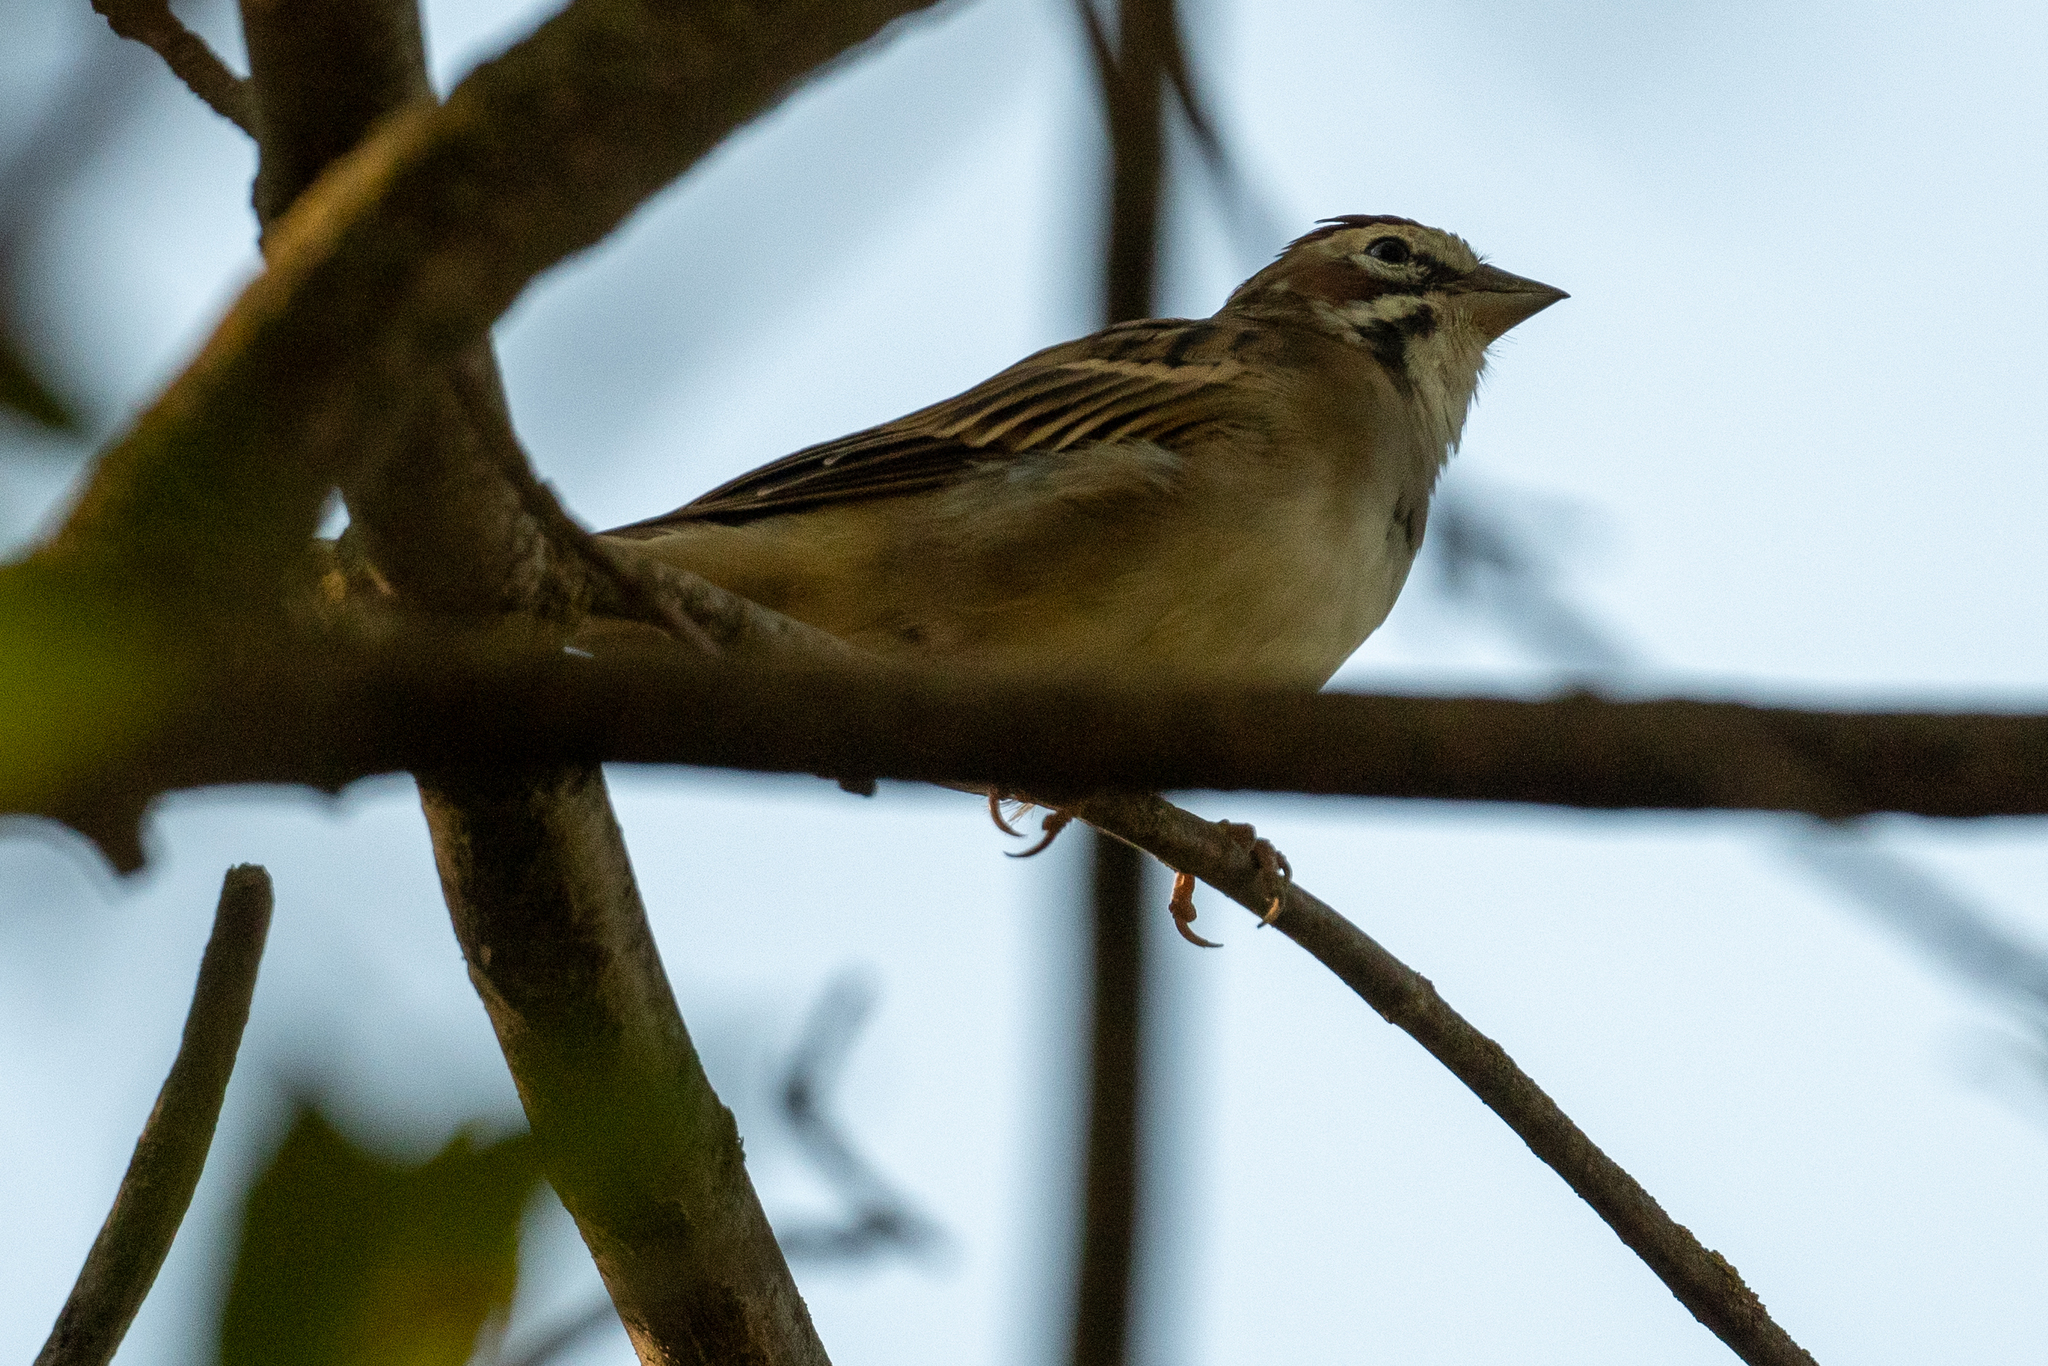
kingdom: Animalia
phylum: Chordata
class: Aves
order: Passeriformes
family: Passerellidae
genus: Chondestes
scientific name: Chondestes grammacus
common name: Lark sparrow
